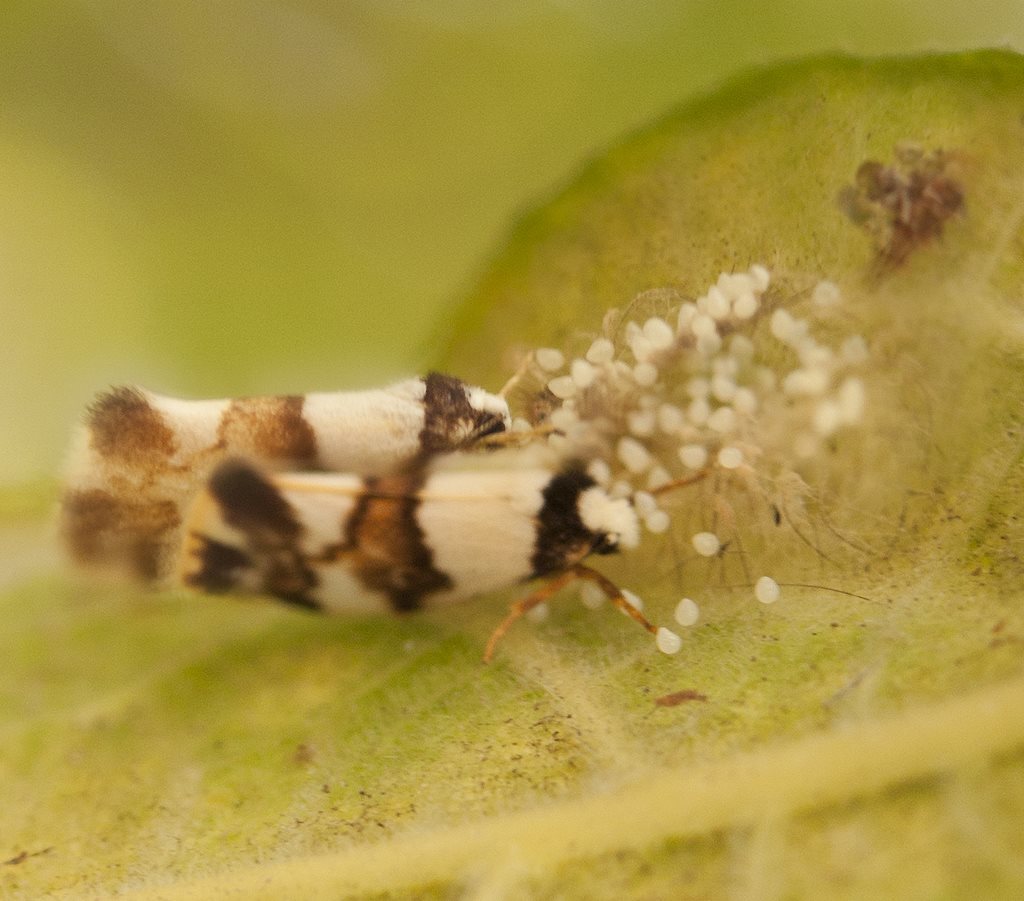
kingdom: Animalia
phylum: Arthropoda
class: Insecta
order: Lepidoptera
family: Erebidae
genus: Philenora
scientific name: Philenora aspectalella
